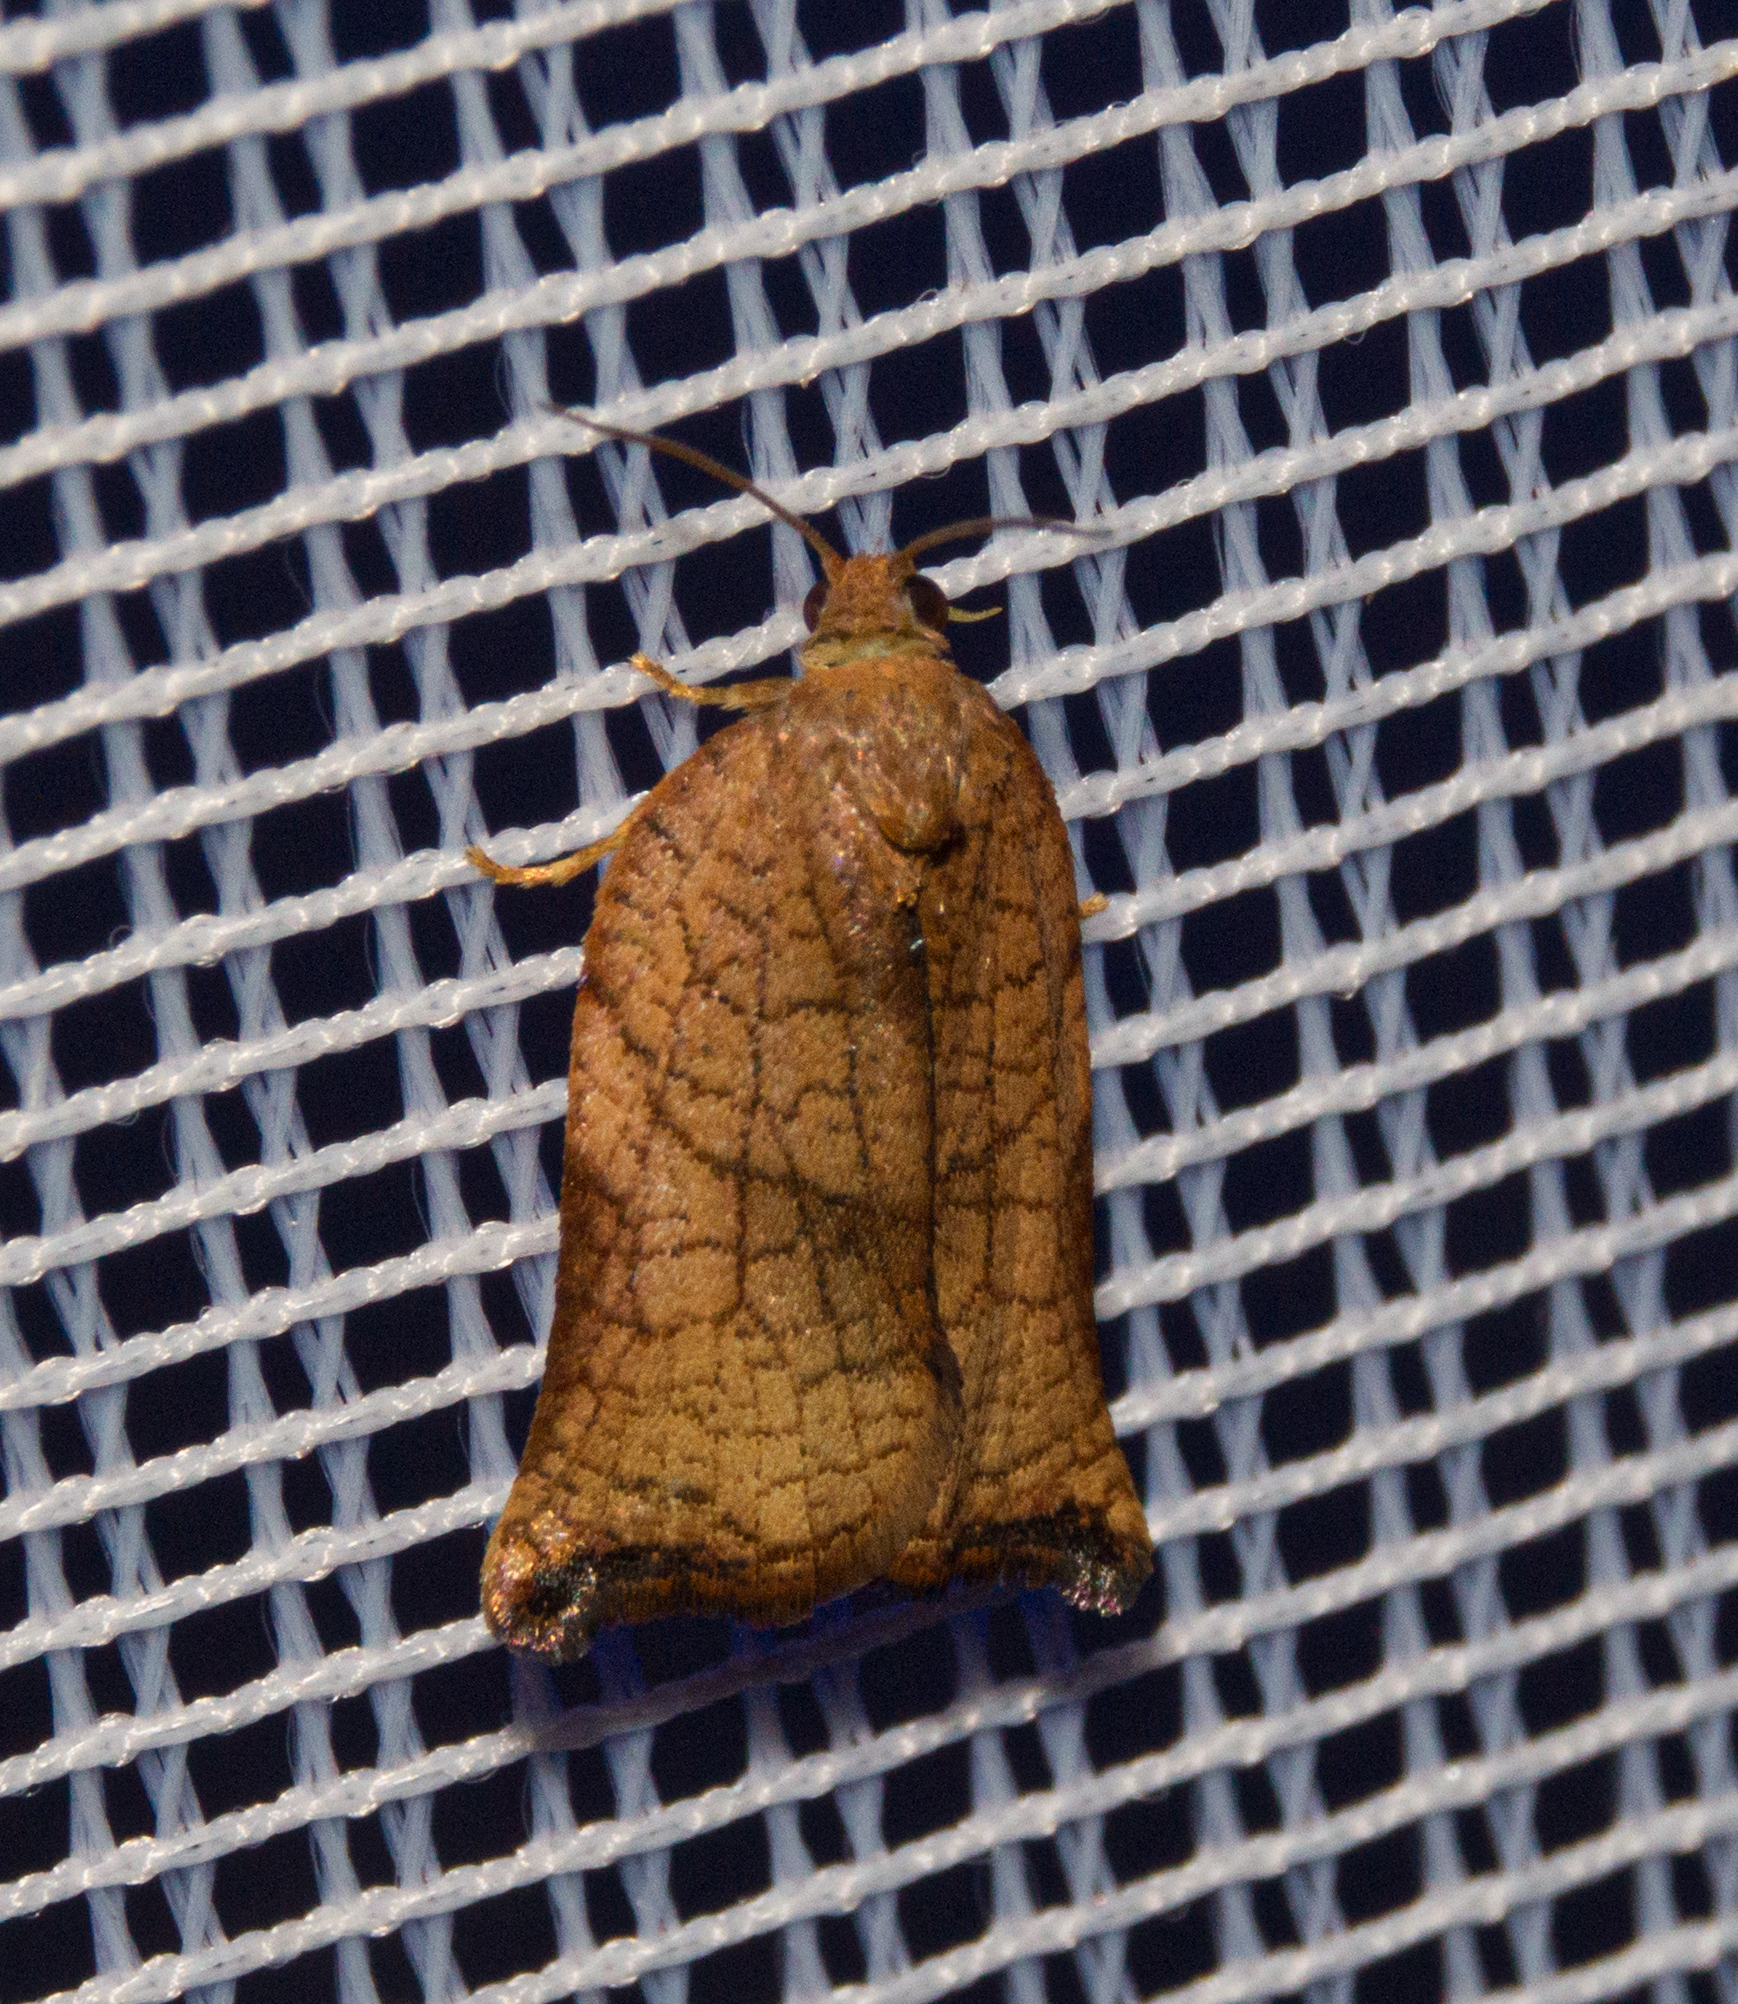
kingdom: Animalia
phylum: Arthropoda
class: Insecta
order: Lepidoptera
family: Tortricidae
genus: Archips
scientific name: Archips podana
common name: Large fruit-tree tortrix
